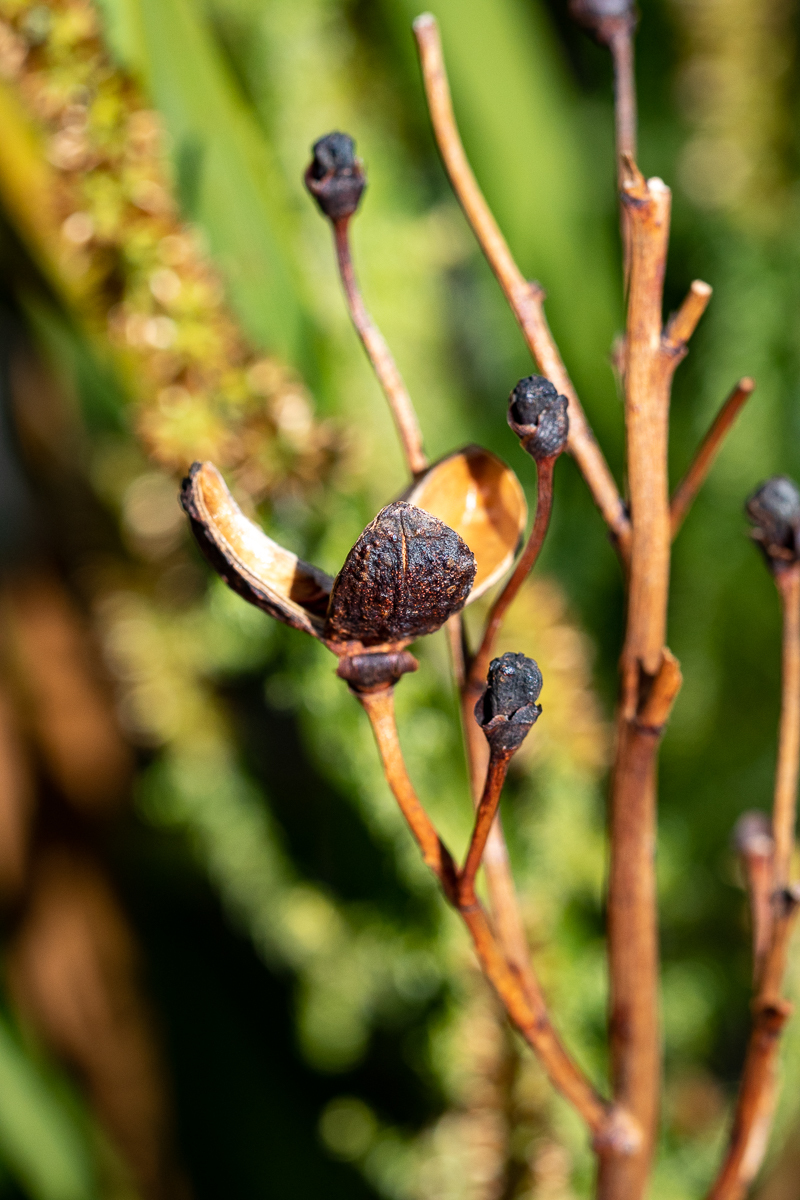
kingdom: Plantae
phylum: Tracheophyta
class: Liliopsida
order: Asparagales
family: Iridaceae
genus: Pillansia
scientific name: Pillansia templemannii
